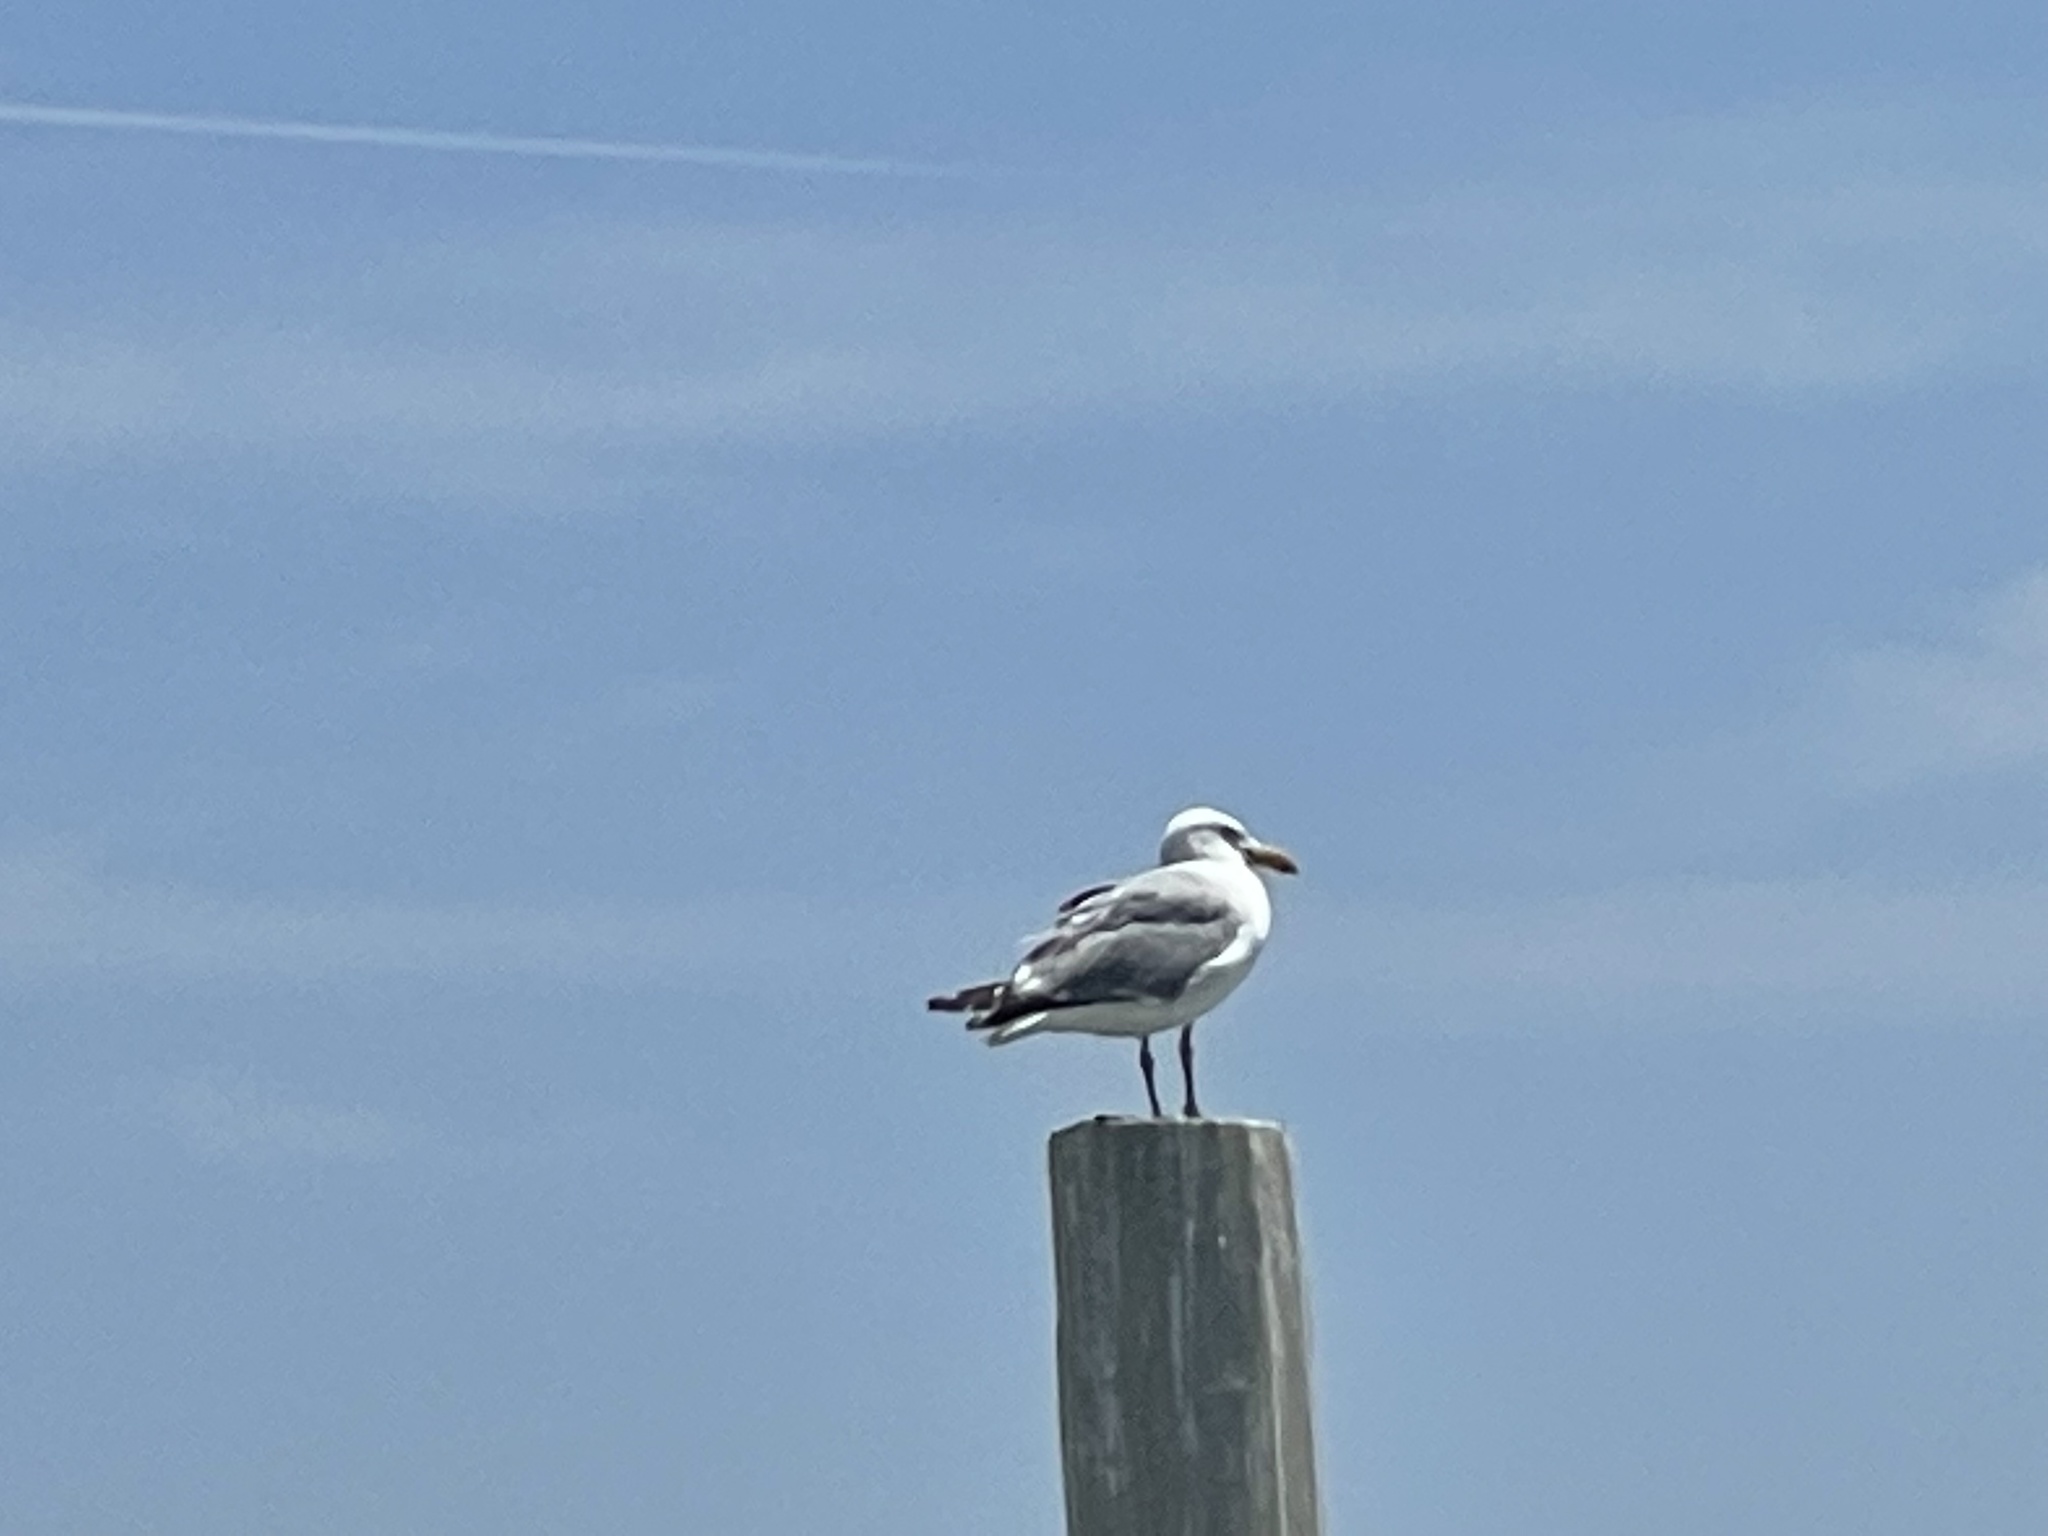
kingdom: Animalia
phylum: Chordata
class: Aves
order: Charadriiformes
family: Laridae
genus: Larus
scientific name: Larus argentatus
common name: Herring gull
